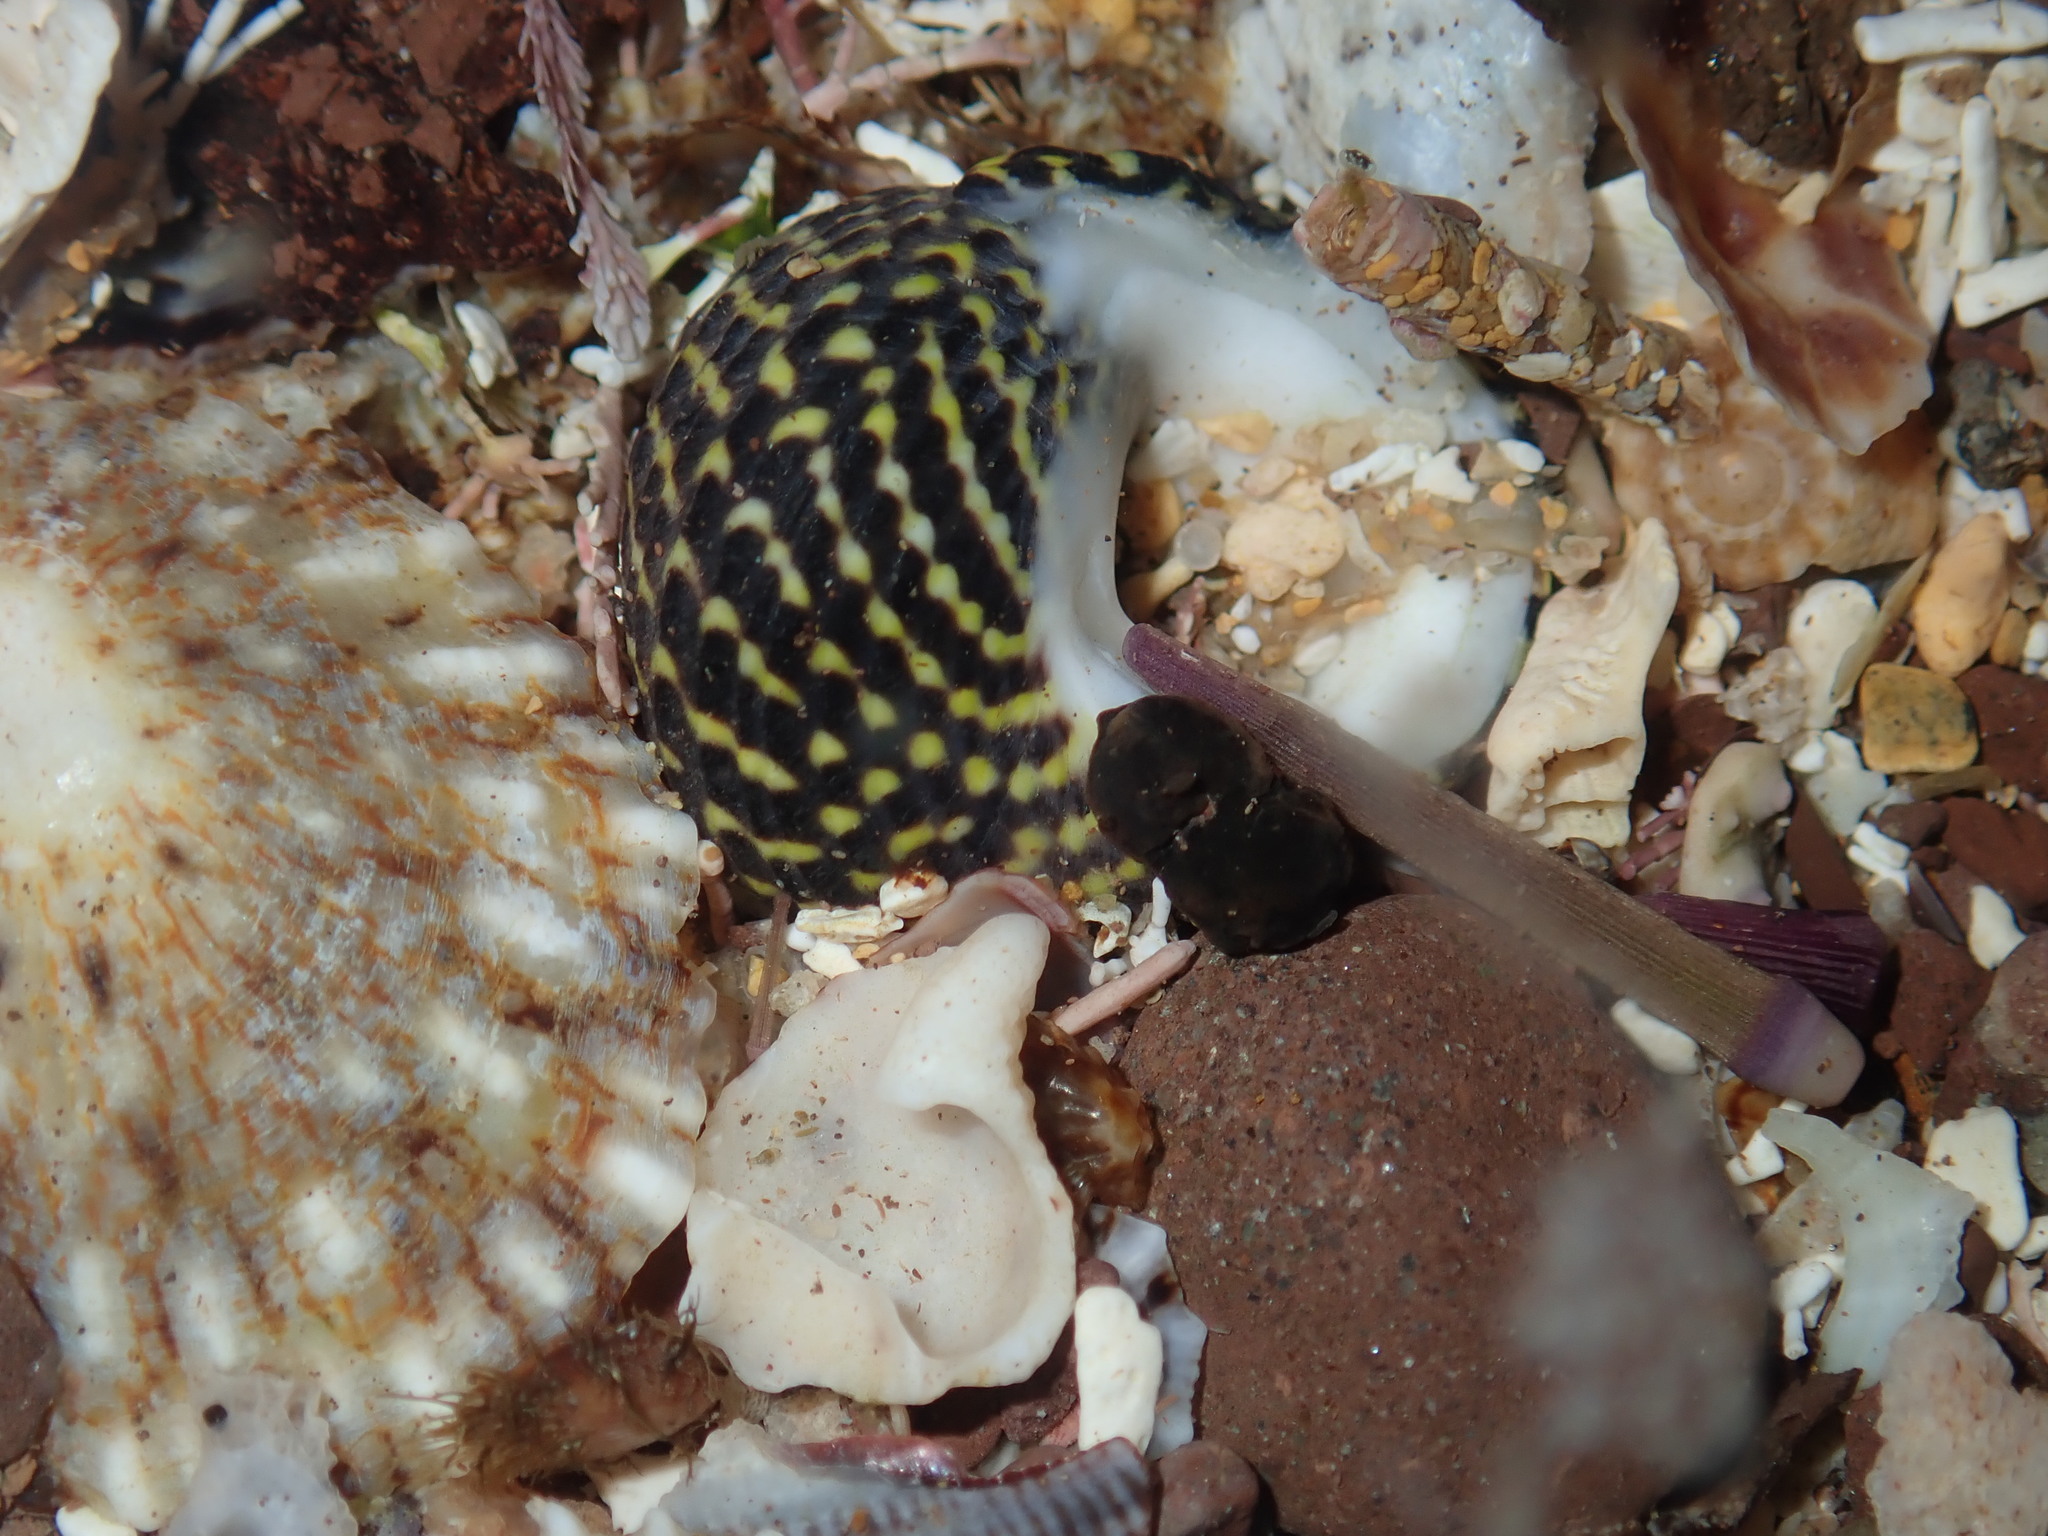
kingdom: Animalia
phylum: Mollusca
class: Gastropoda
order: Trochida
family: Trochidae
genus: Diloma
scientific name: Diloma concameratum
